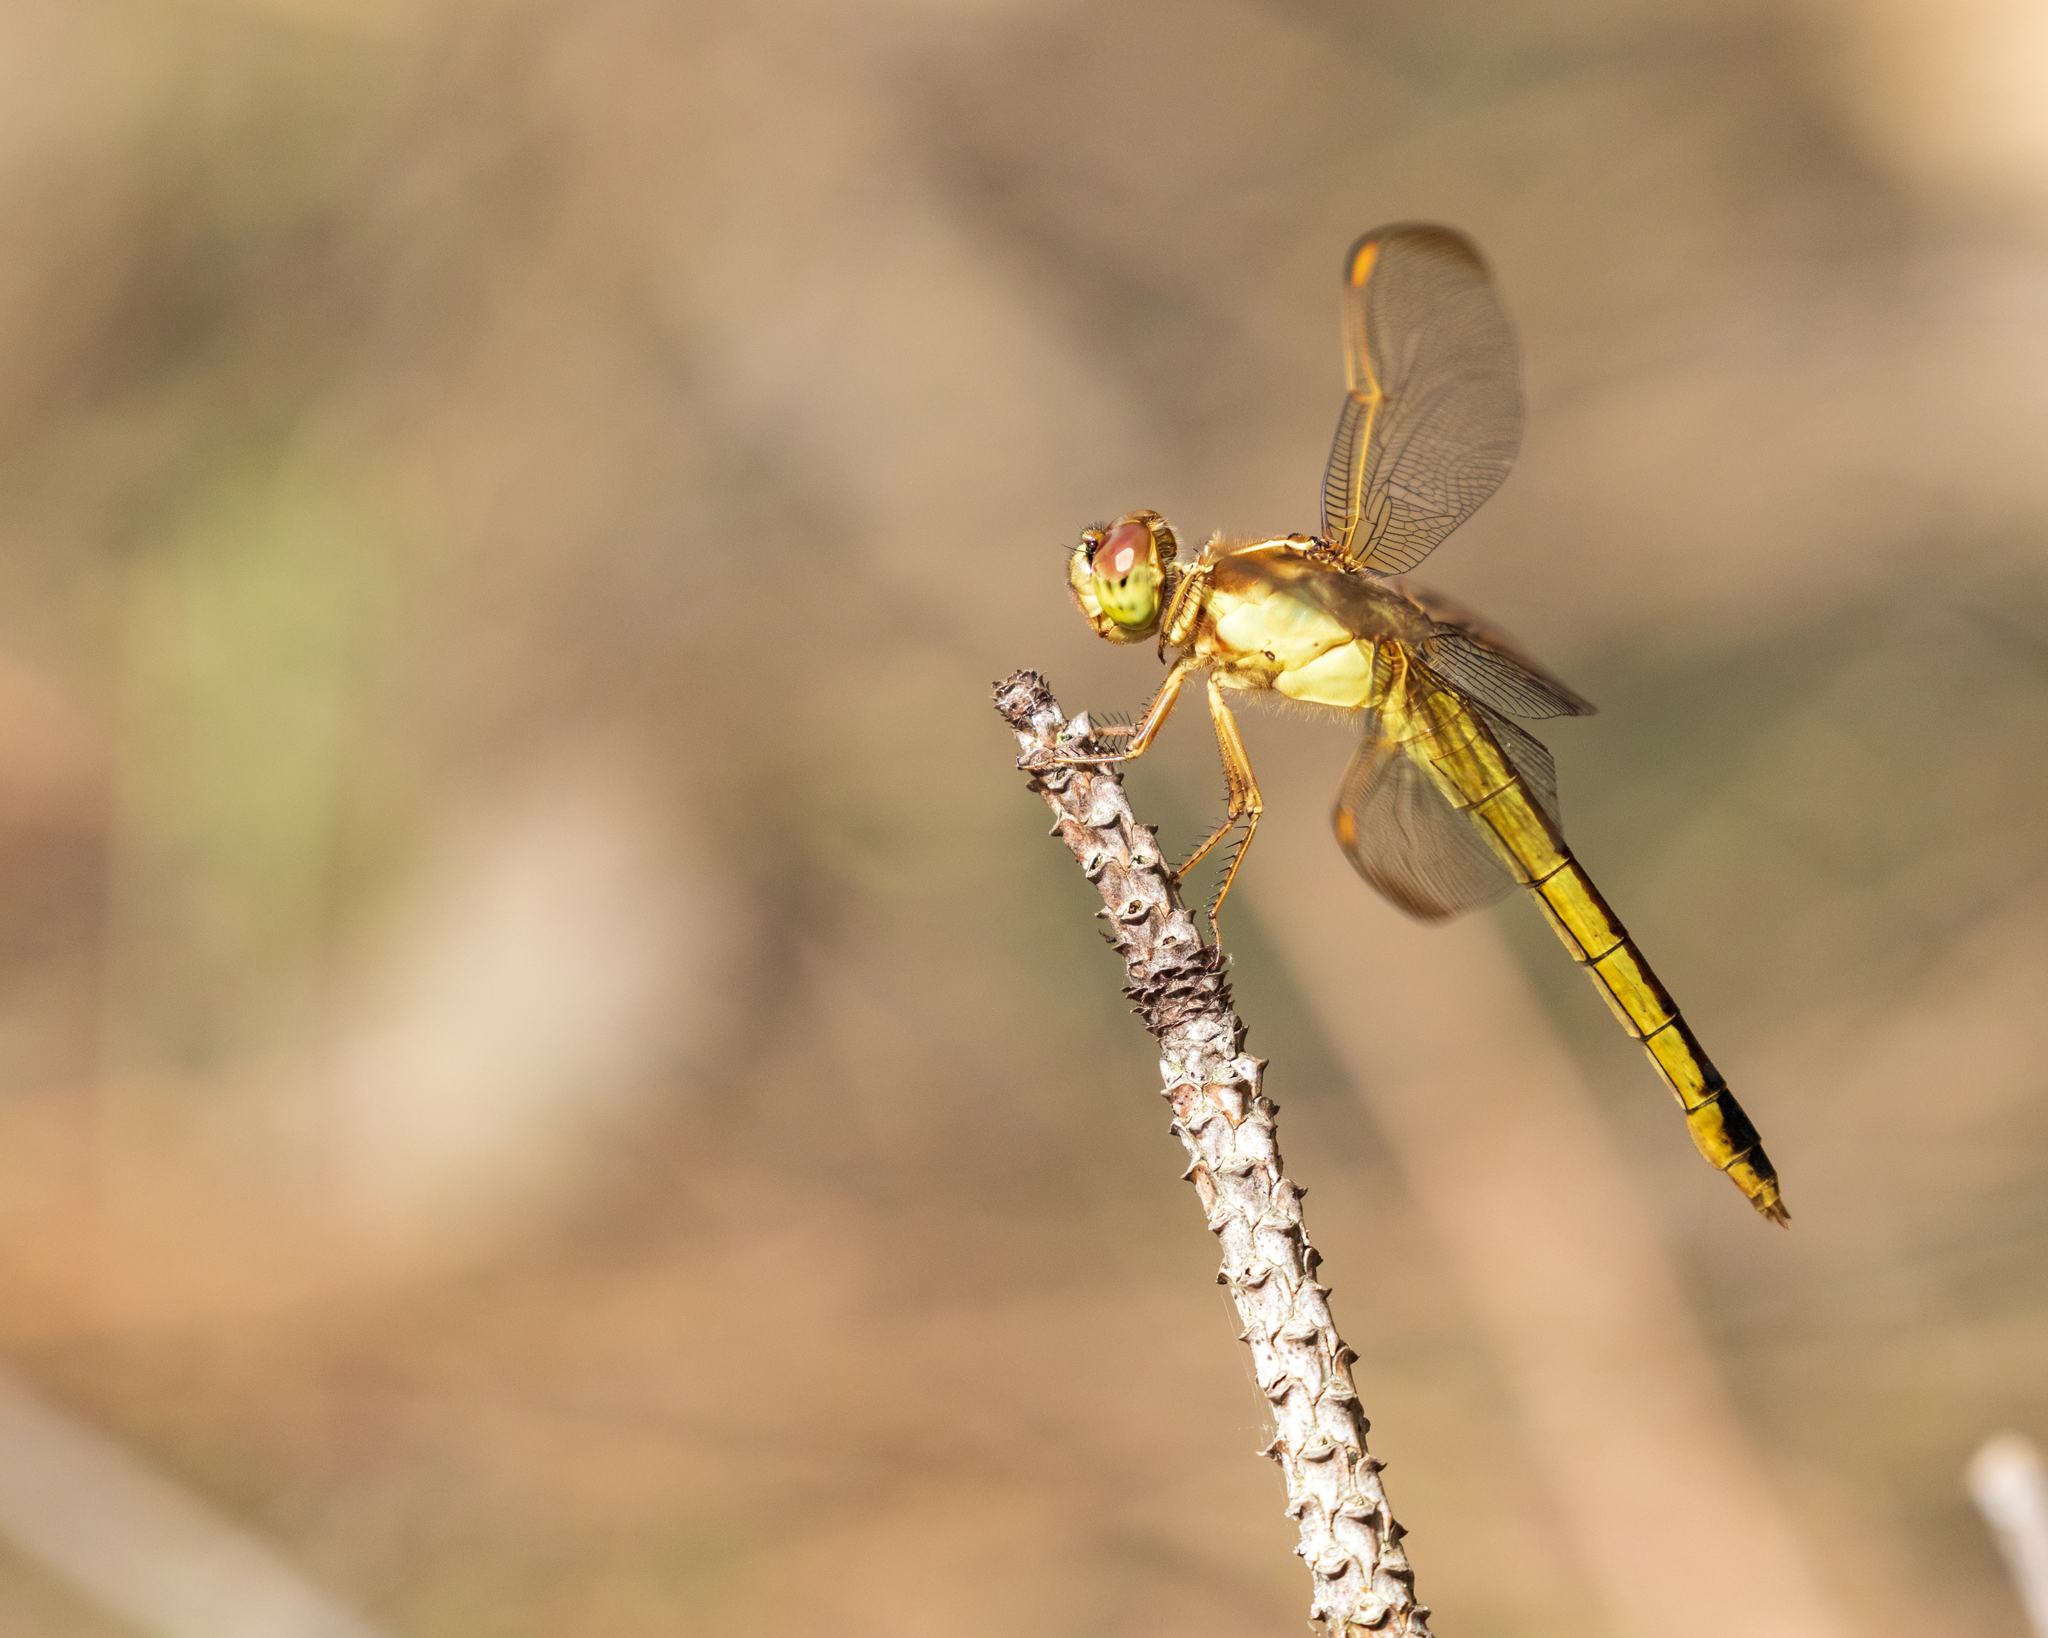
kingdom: Animalia
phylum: Arthropoda
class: Insecta
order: Odonata
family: Libellulidae
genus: Libellula
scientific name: Libellula needhami
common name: Needham's skimmer
